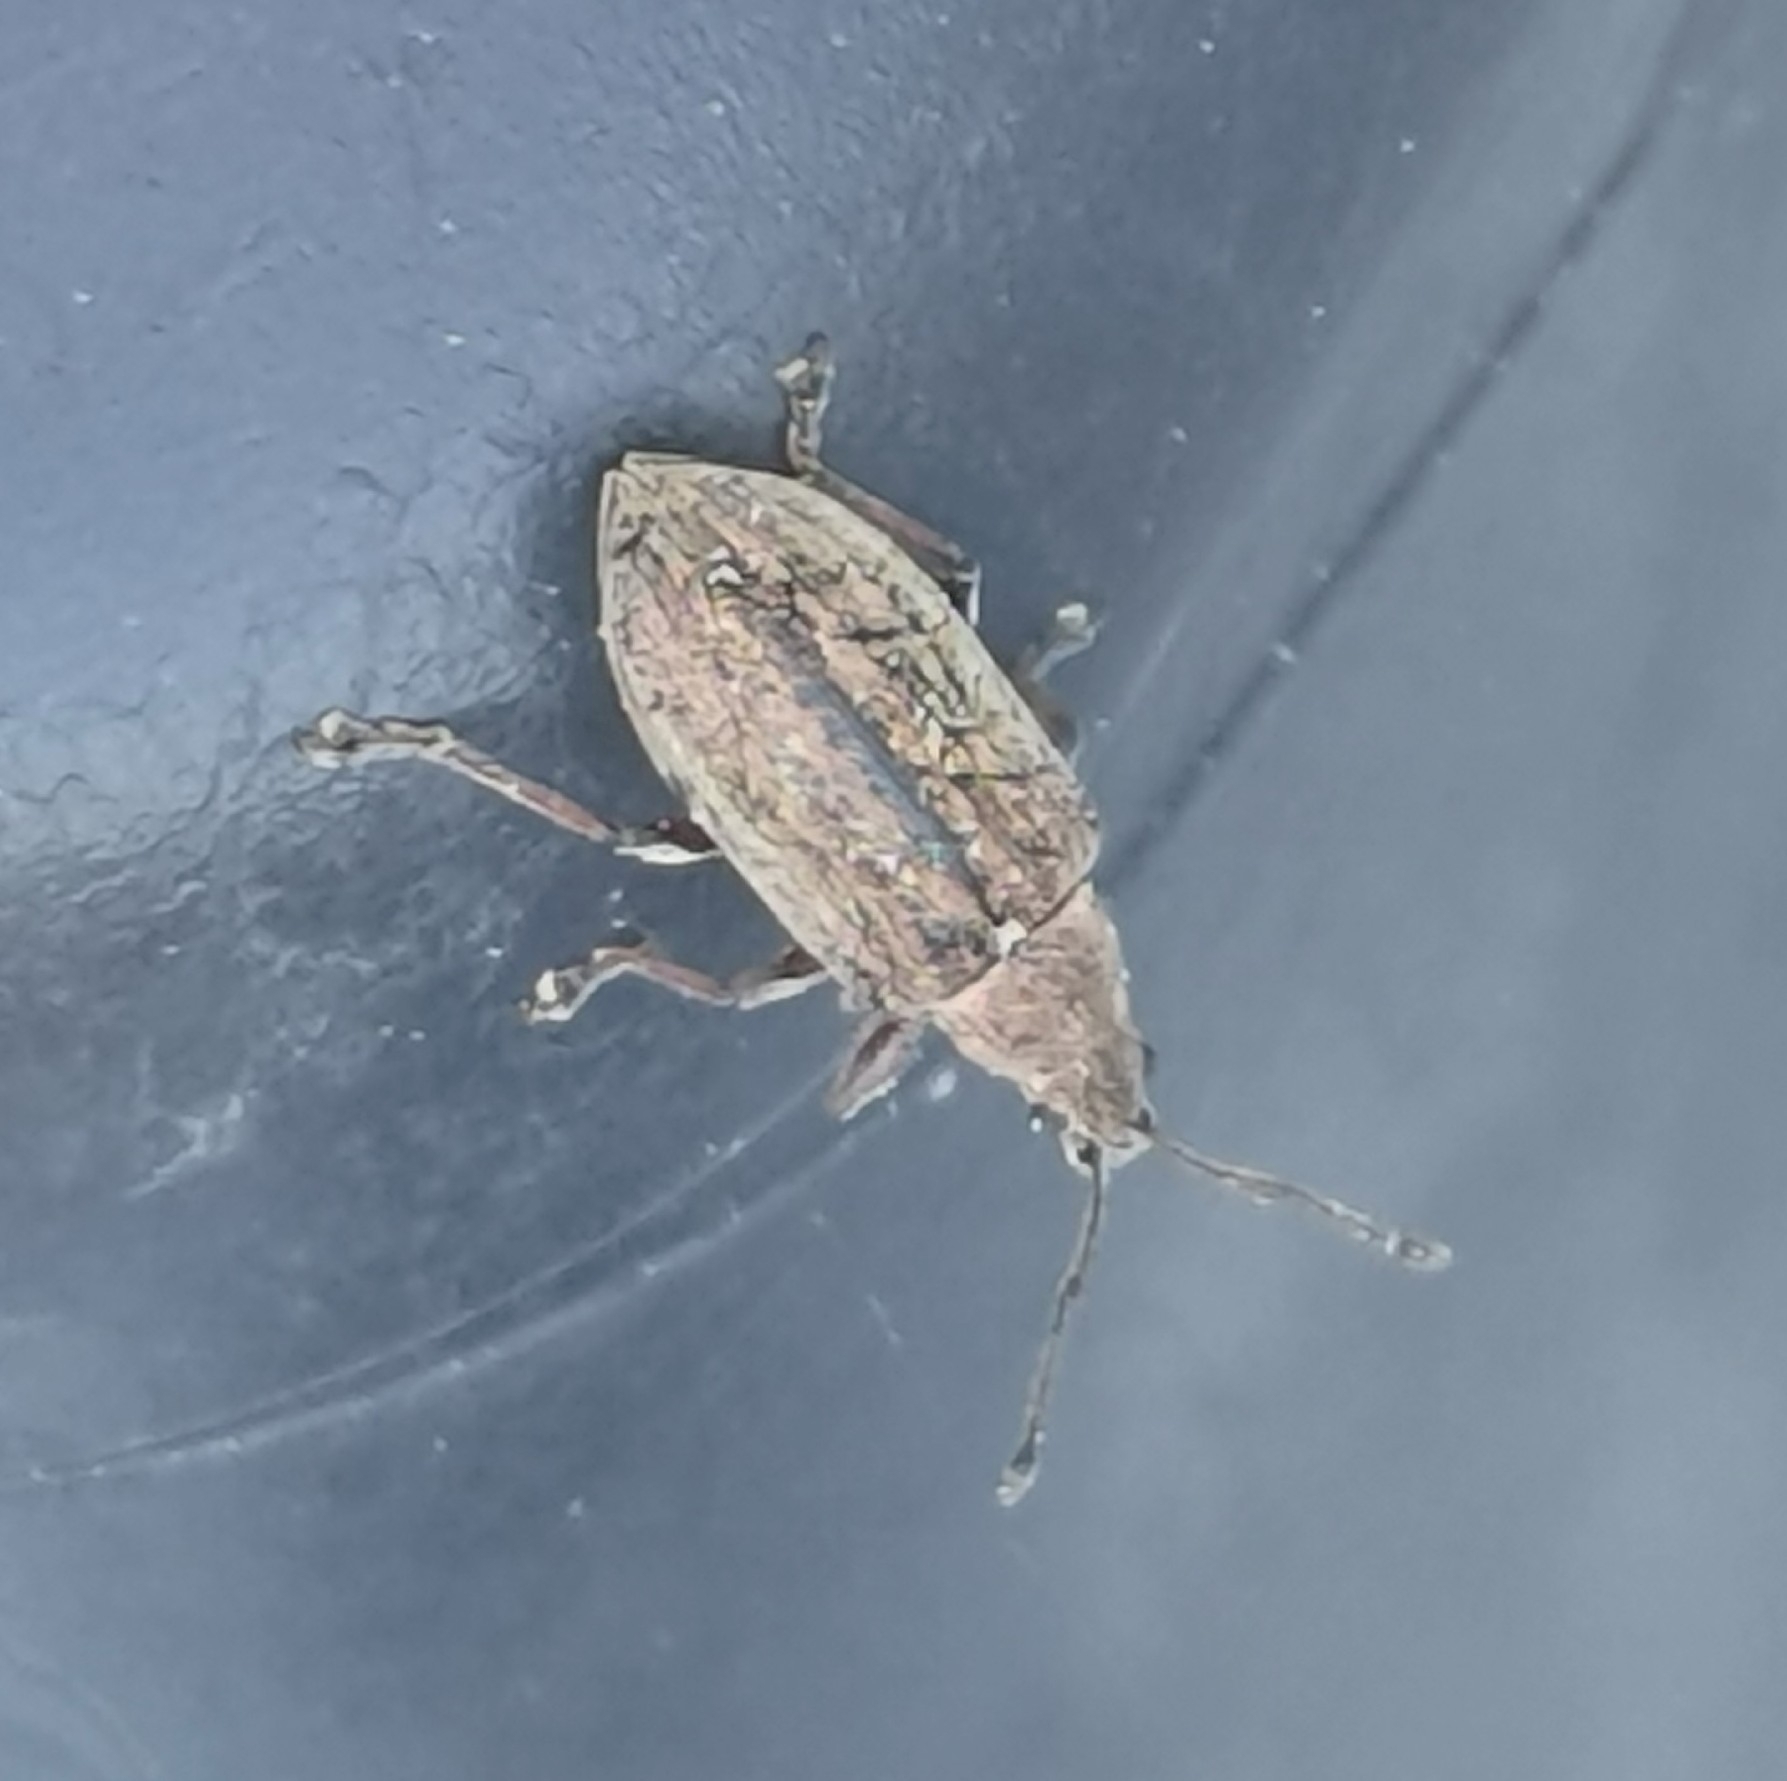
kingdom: Animalia
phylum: Arthropoda
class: Insecta
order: Coleoptera
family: Curculionidae
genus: Phyllobius
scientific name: Phyllobius pyri
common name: Common leaf weevil
